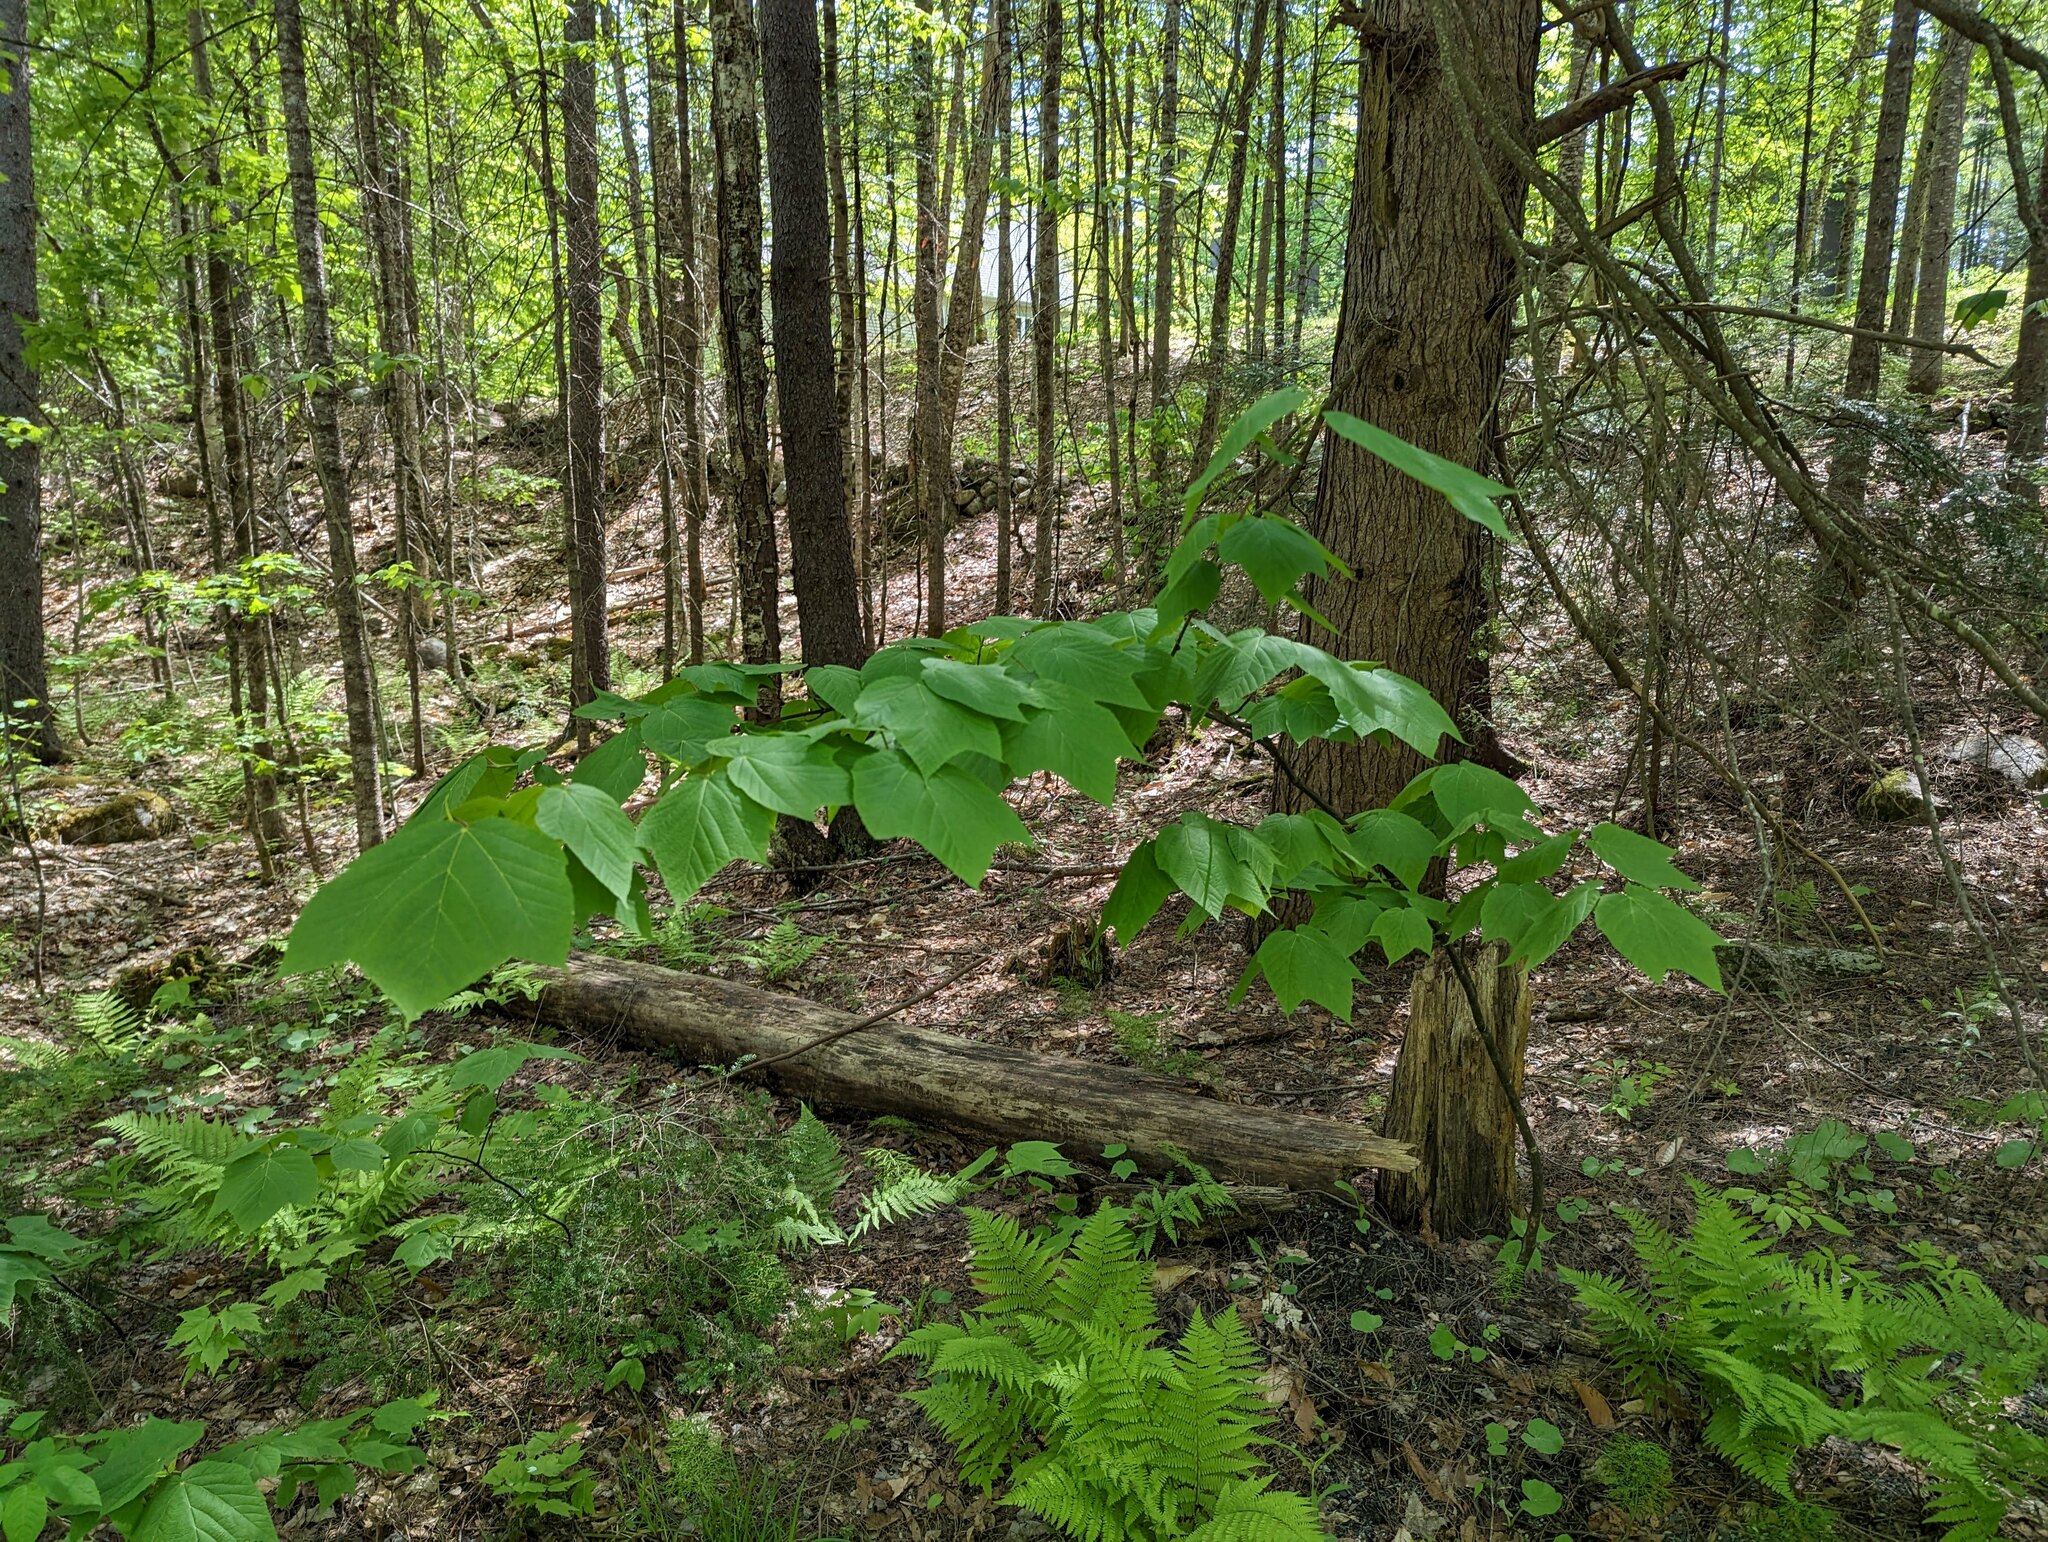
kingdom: Plantae
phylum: Tracheophyta
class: Magnoliopsida
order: Sapindales
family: Sapindaceae
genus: Acer
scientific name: Acer pensylvanicum
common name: Moosewood
